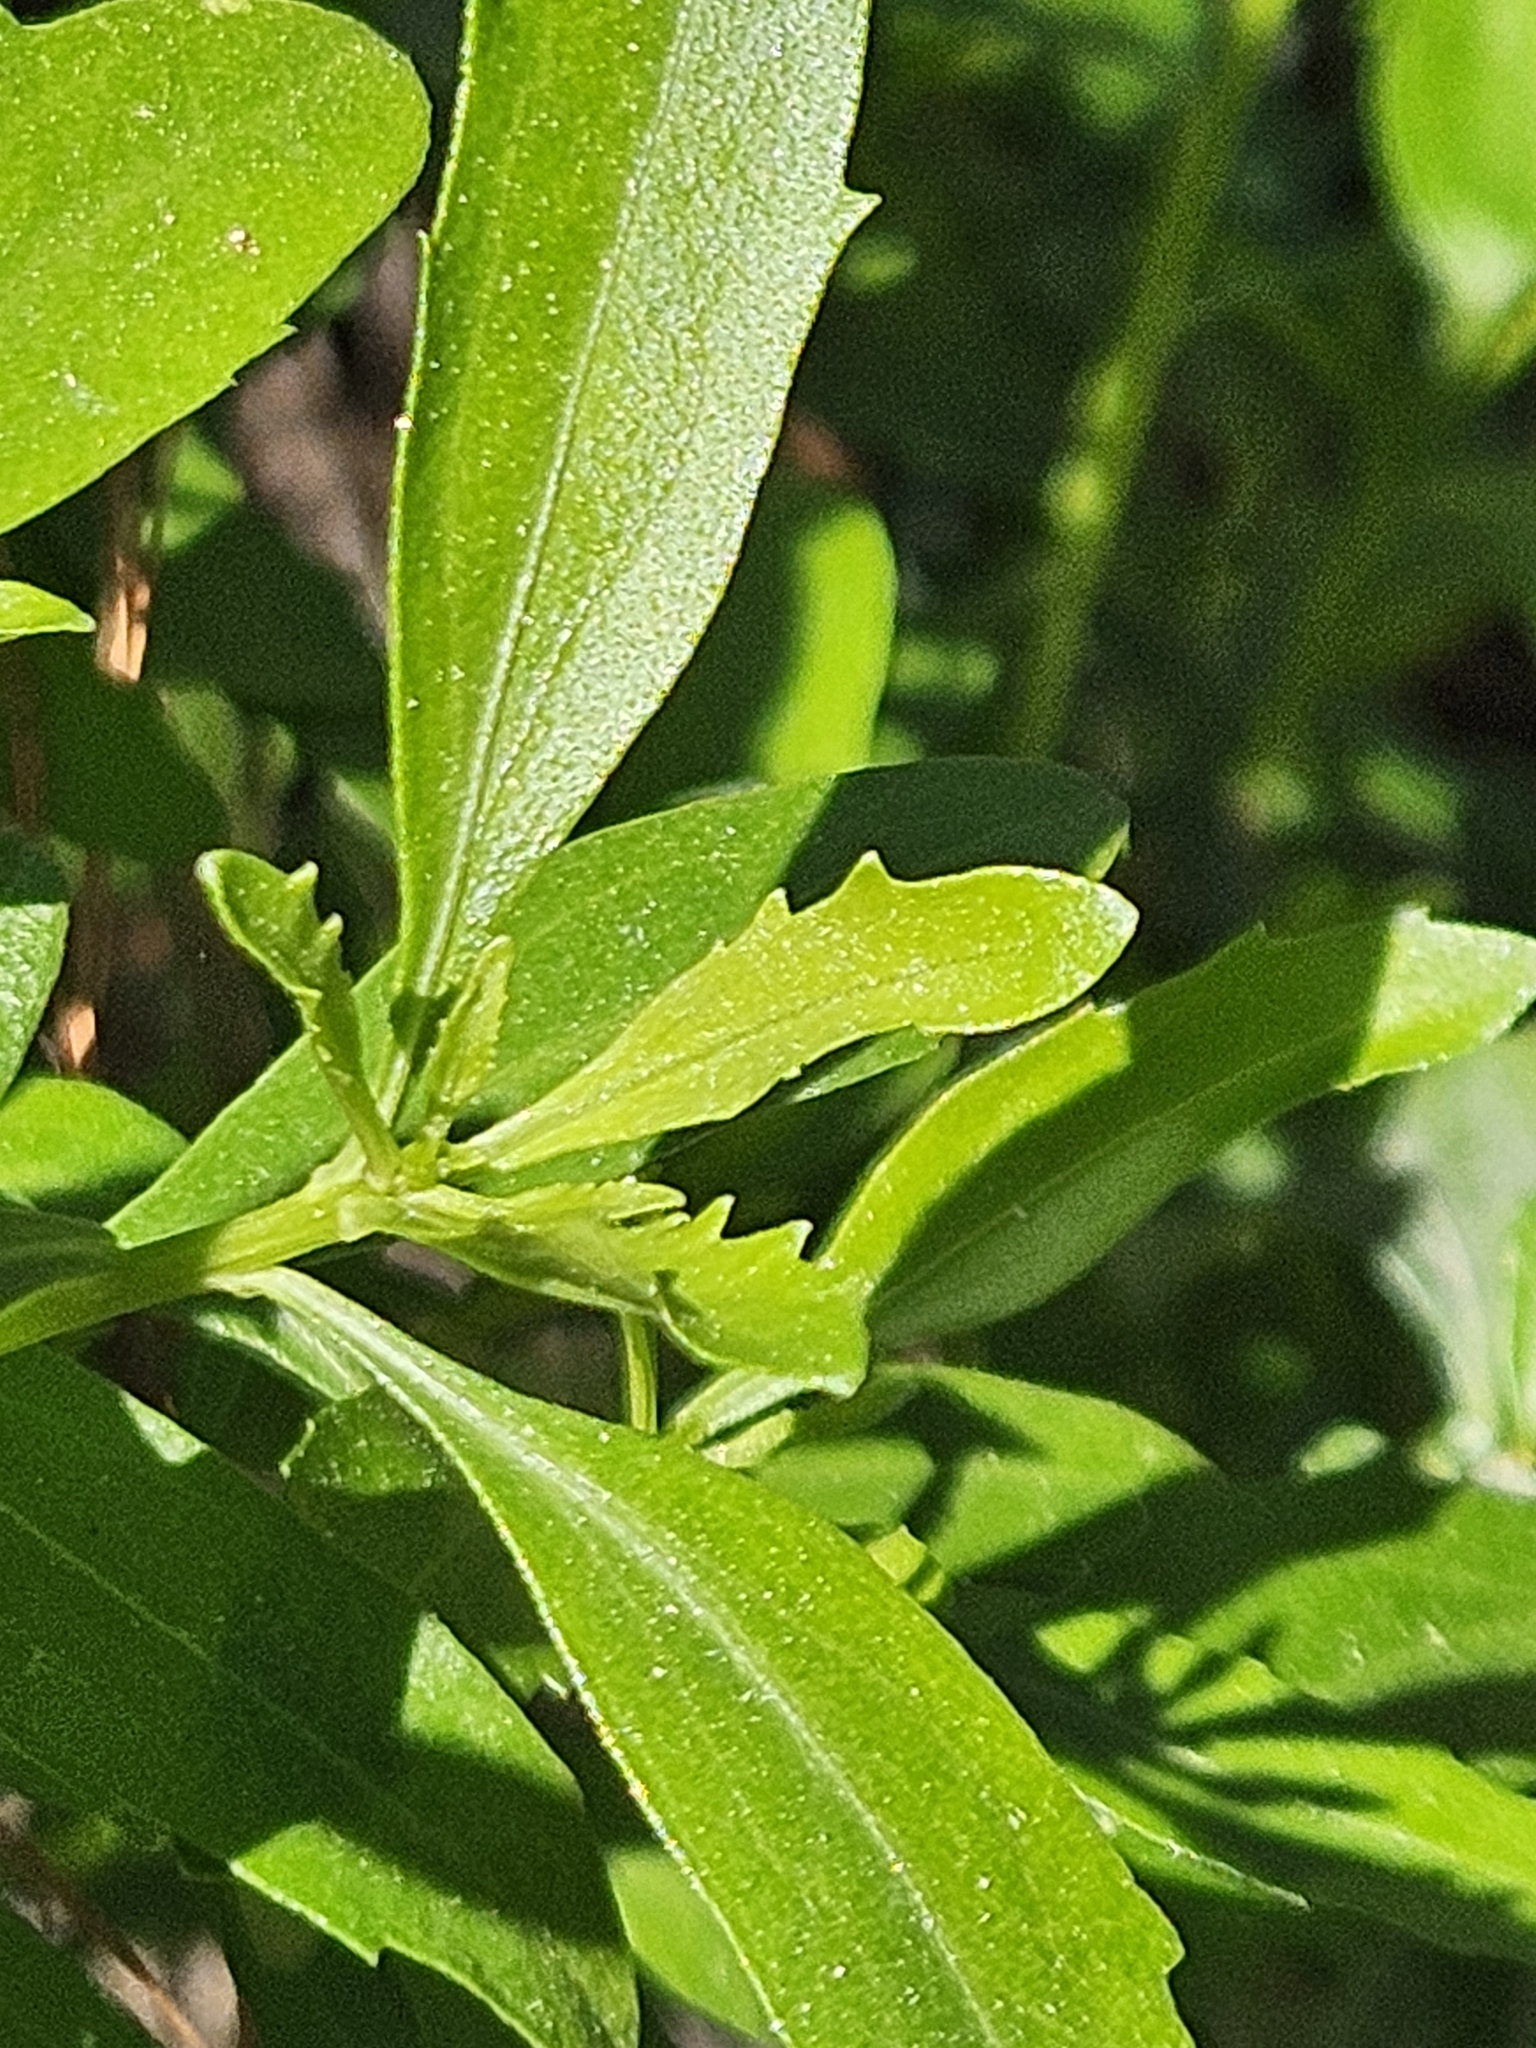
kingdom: Plantae
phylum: Tracheophyta
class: Magnoliopsida
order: Asterales
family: Asteraceae
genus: Baccharis
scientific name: Baccharis halimifolia
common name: Eastern baccharis
